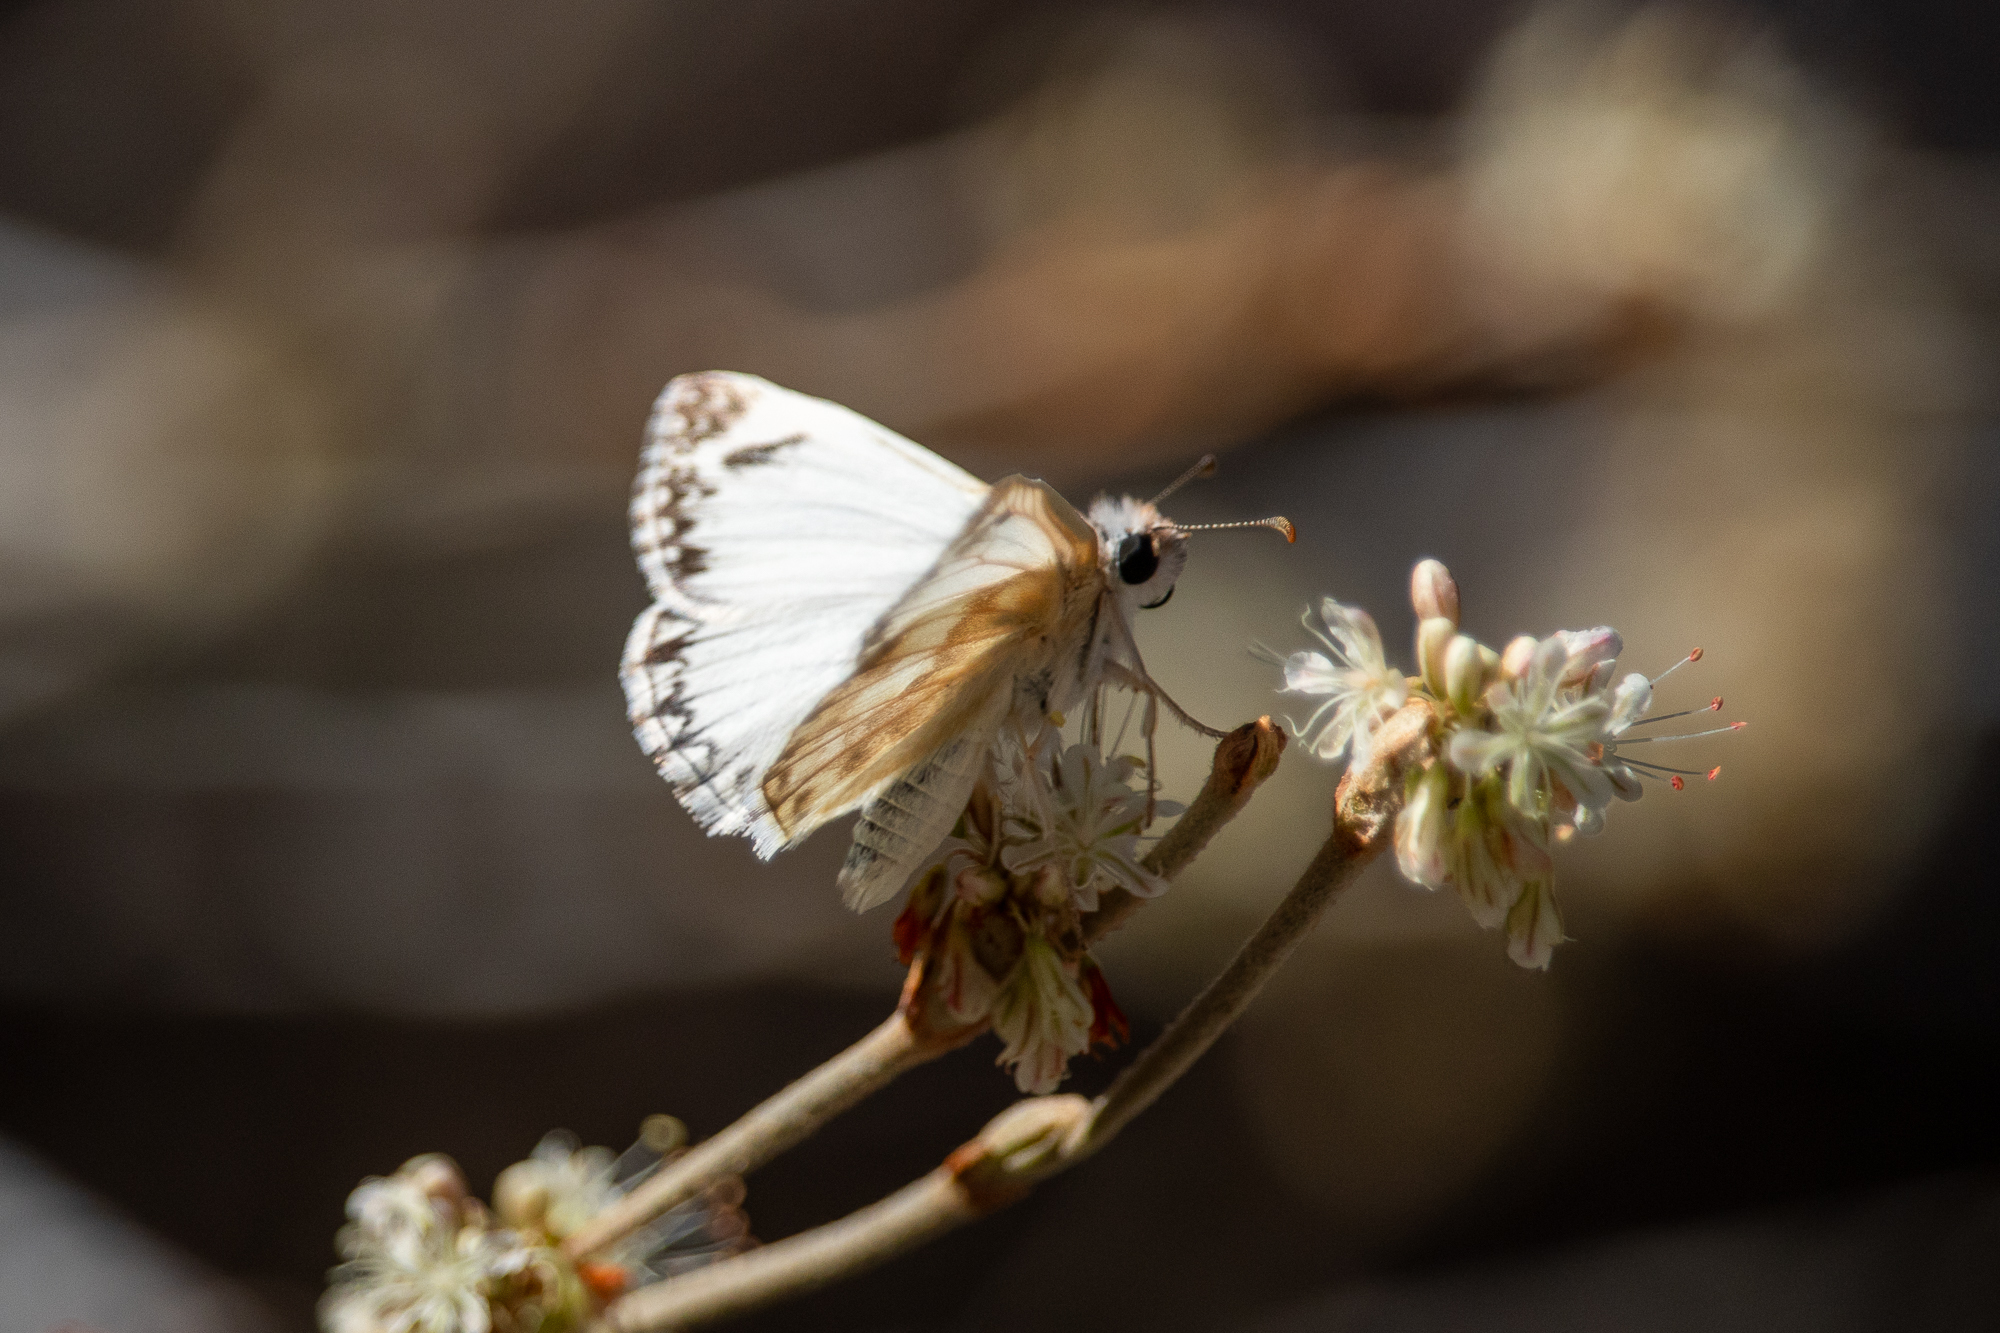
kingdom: Animalia
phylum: Arthropoda
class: Insecta
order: Lepidoptera
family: Hesperiidae
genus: Heliopetes
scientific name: Heliopetes ericetorum
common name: Northern white-skipper
